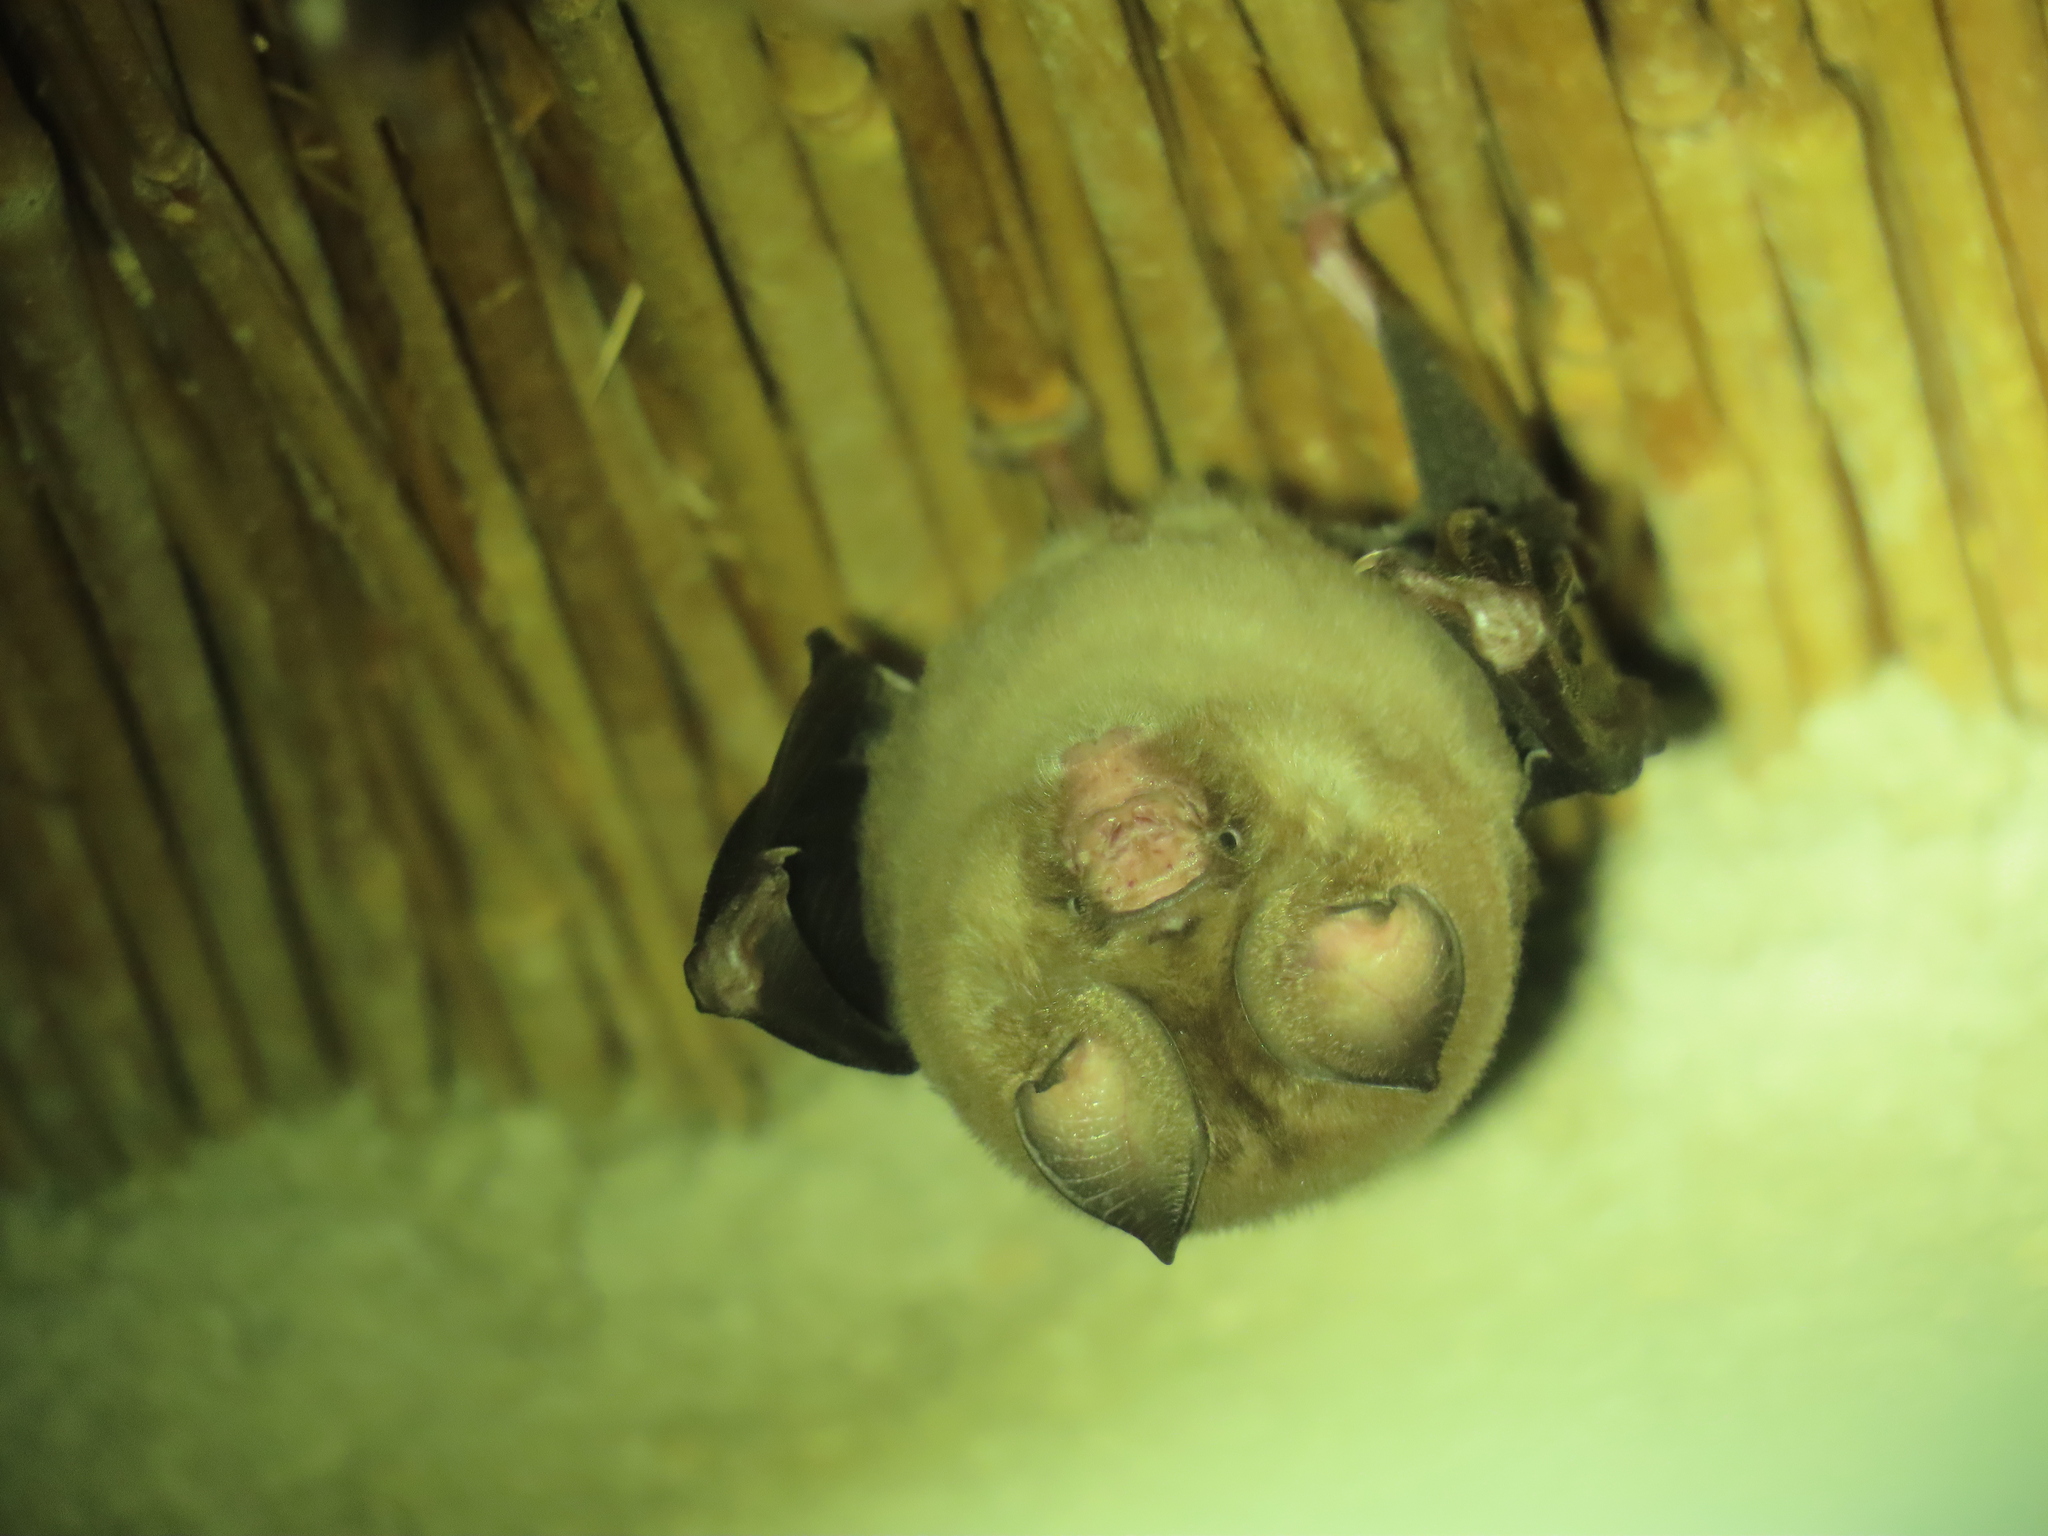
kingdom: Animalia
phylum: Chordata
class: Mammalia
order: Chiroptera
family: Hipposideridae
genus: Hipposideros
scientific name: Hipposideros caffer
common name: Sundevall's roundleaf bat
